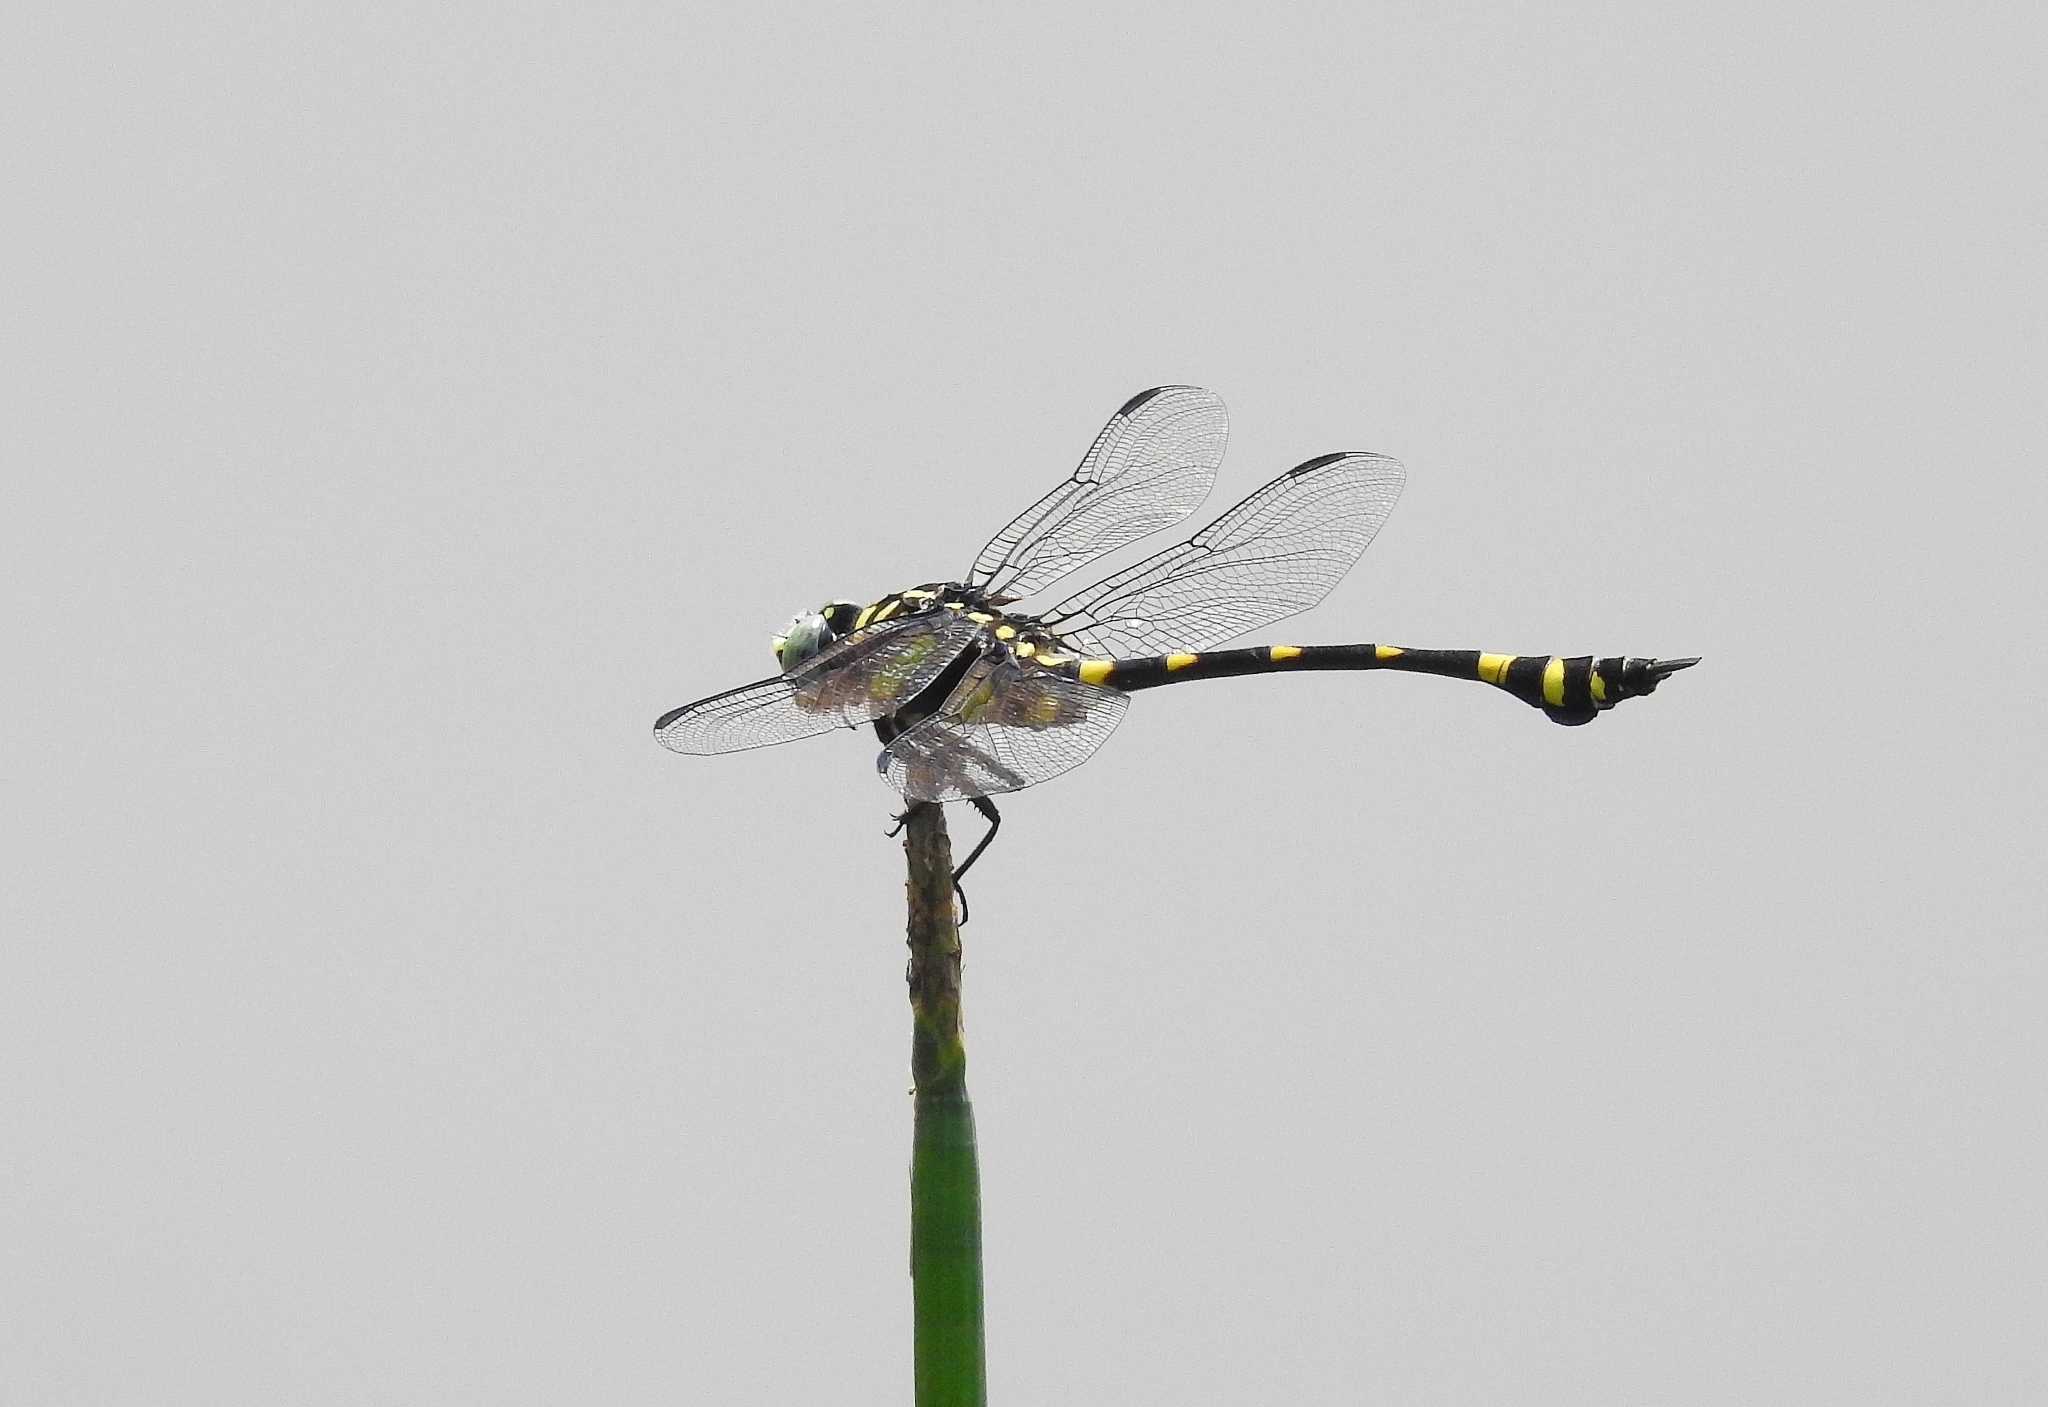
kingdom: Animalia
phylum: Arthropoda
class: Insecta
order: Odonata
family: Gomphidae
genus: Ictinogomphus
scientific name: Ictinogomphus rapax
